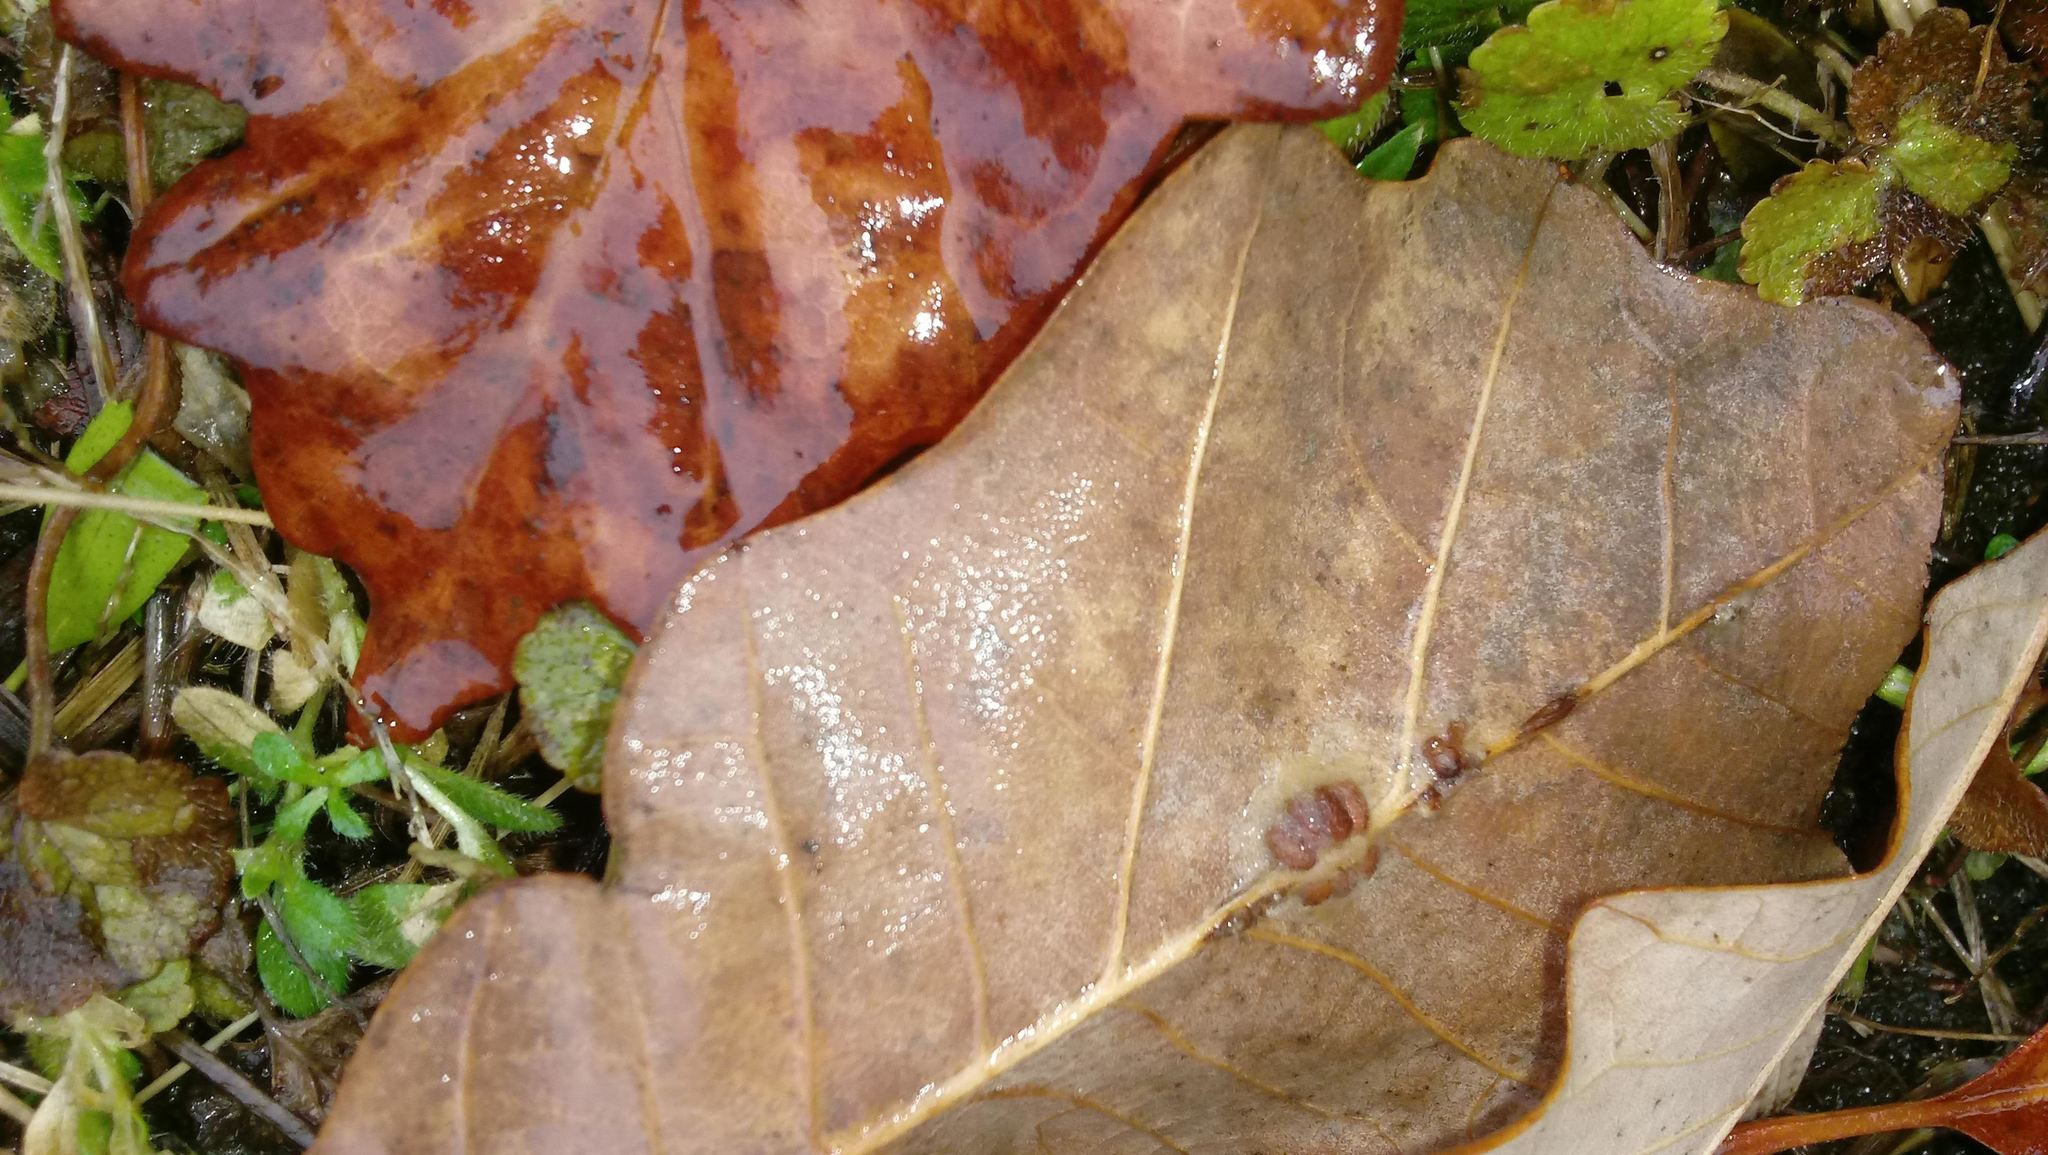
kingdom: Animalia
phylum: Arthropoda
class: Insecta
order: Hymenoptera
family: Cynipidae
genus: Andricus
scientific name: Andricus Druon ignotum
